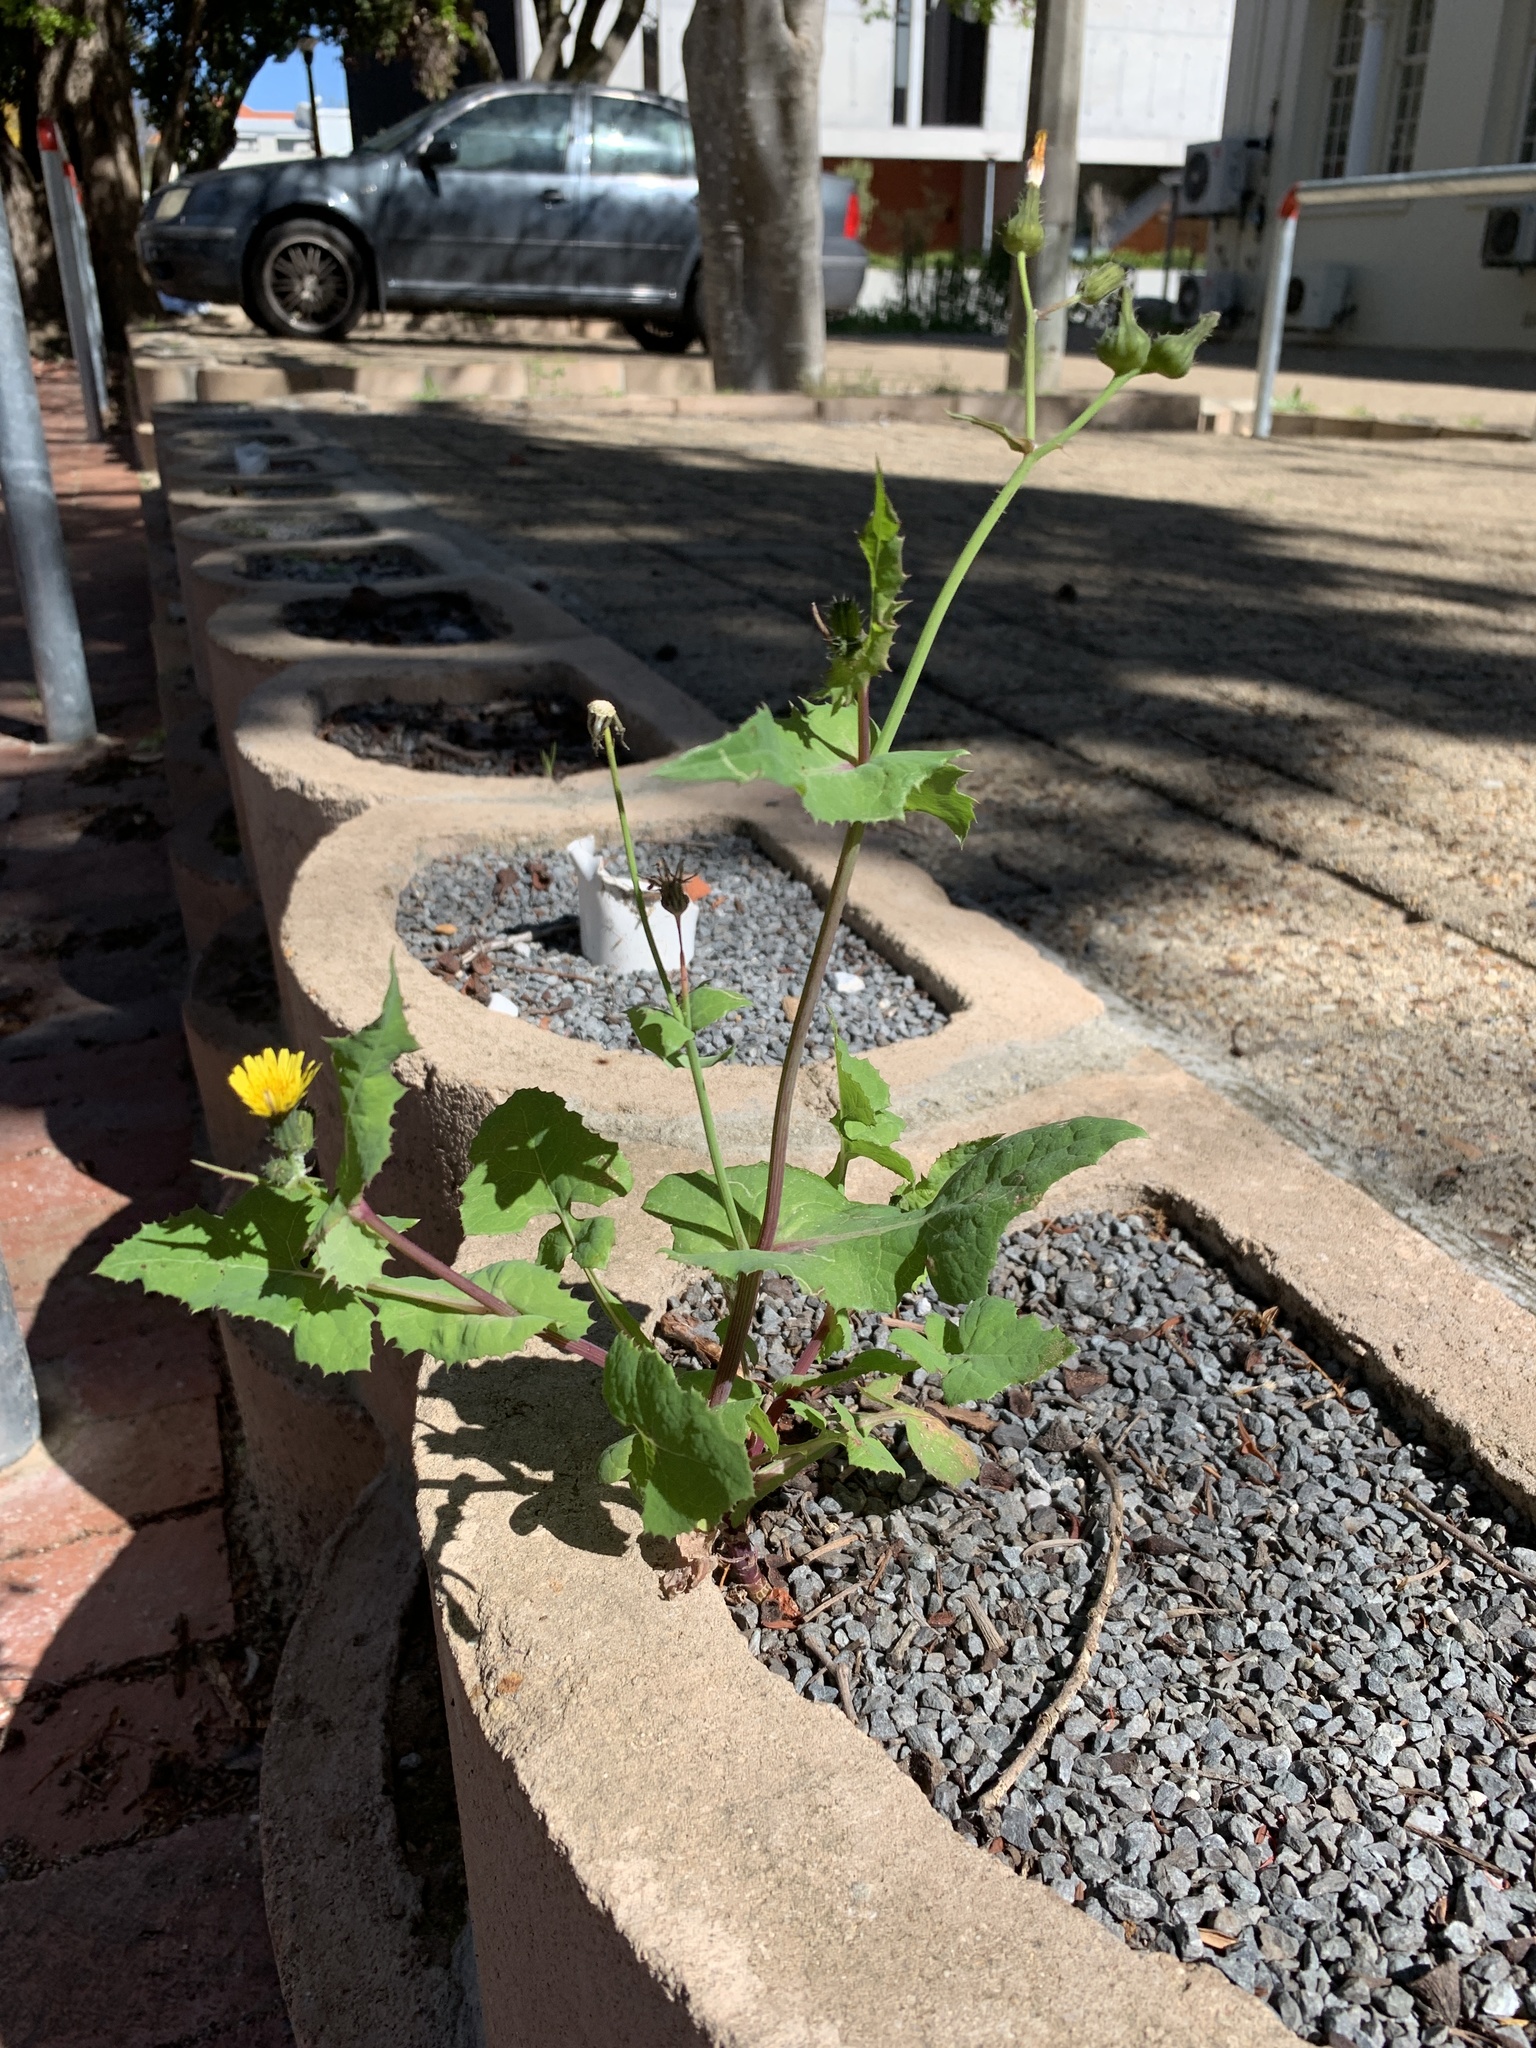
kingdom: Plantae
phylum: Tracheophyta
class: Magnoliopsida
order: Asterales
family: Asteraceae
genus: Sonchus
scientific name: Sonchus oleraceus
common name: Common sowthistle
